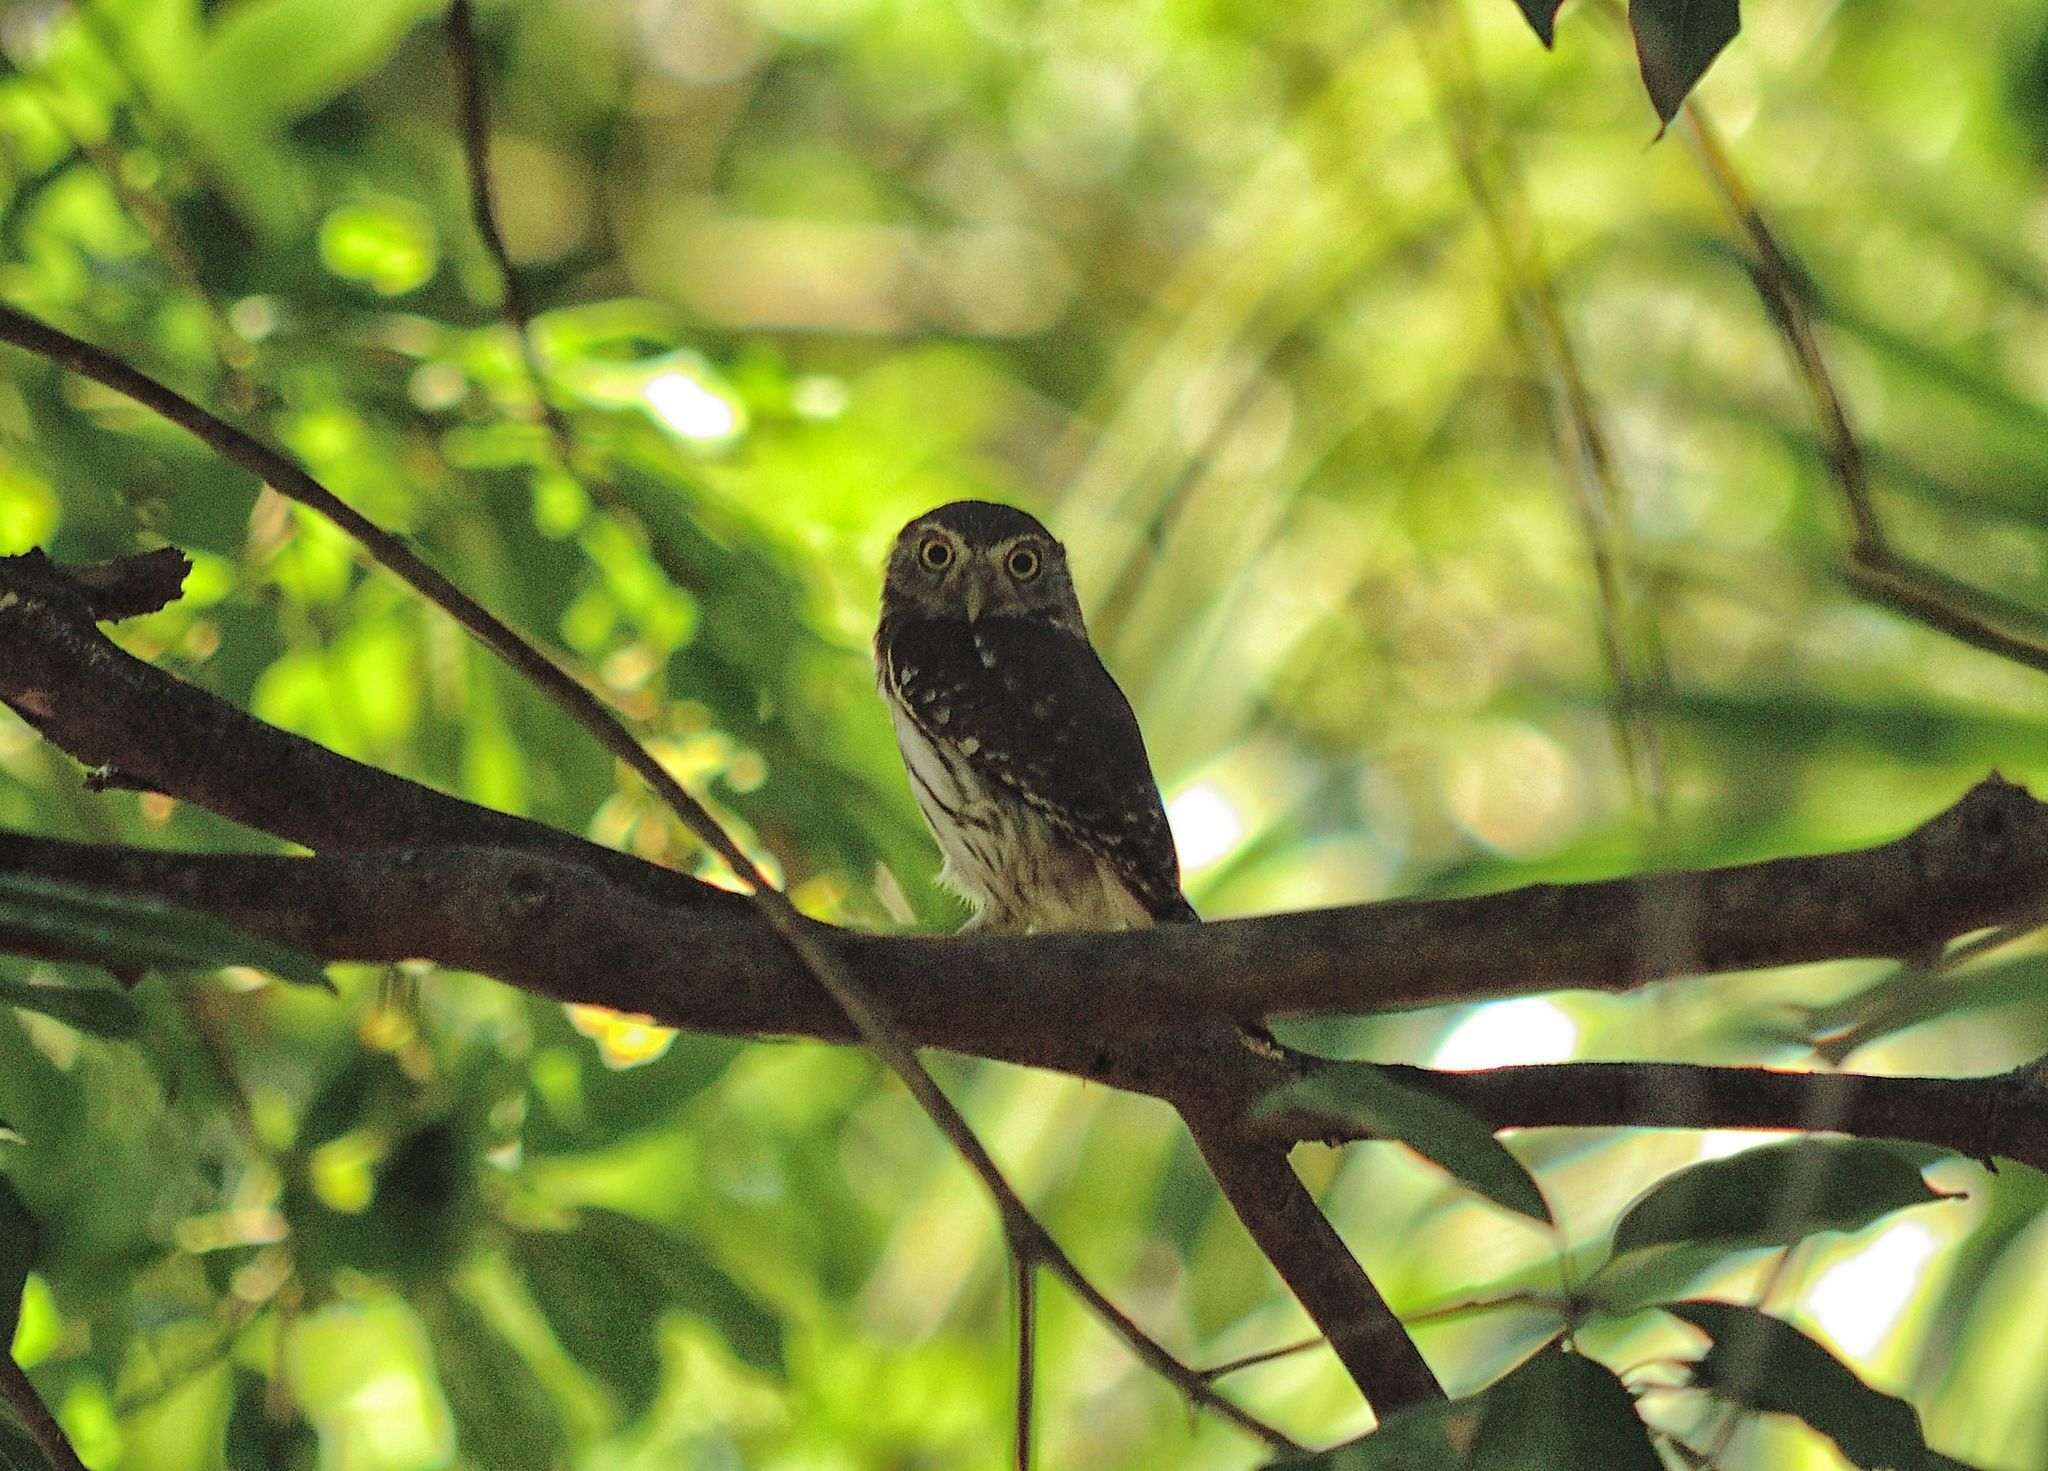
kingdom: Animalia
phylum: Chordata
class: Aves
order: Strigiformes
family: Strigidae
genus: Glaucidium
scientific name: Glaucidium brasilianum
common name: Ferruginous pygmy-owl
